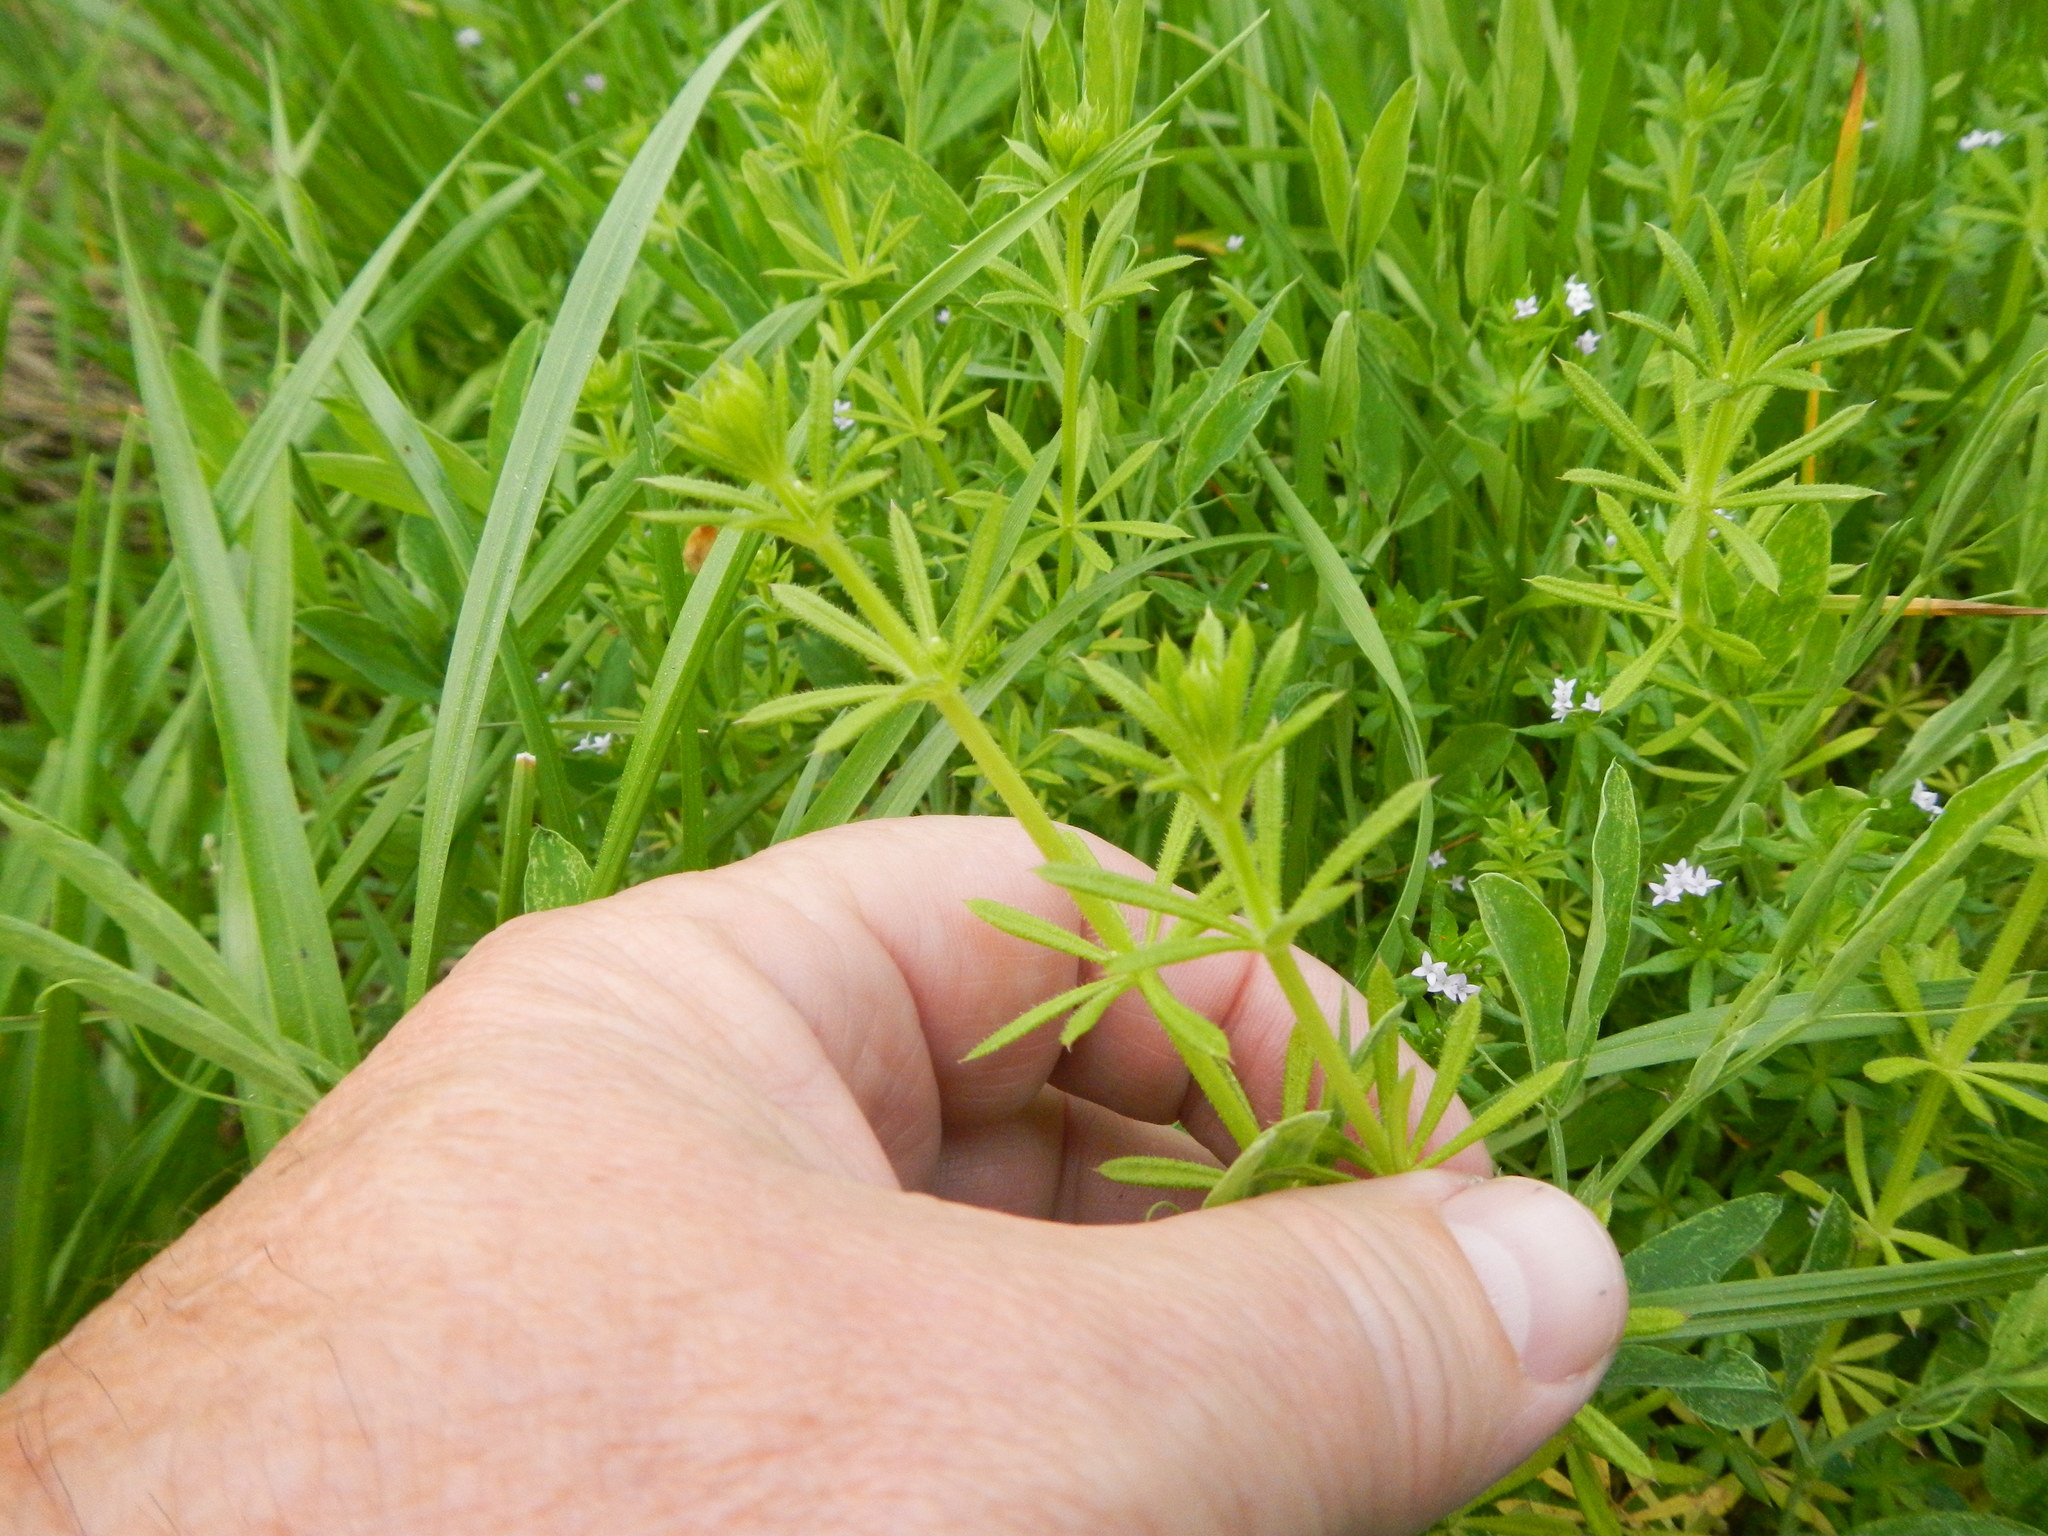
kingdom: Plantae
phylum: Tracheophyta
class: Magnoliopsida
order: Gentianales
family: Rubiaceae
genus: Galium
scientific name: Galium aparine
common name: Cleavers
